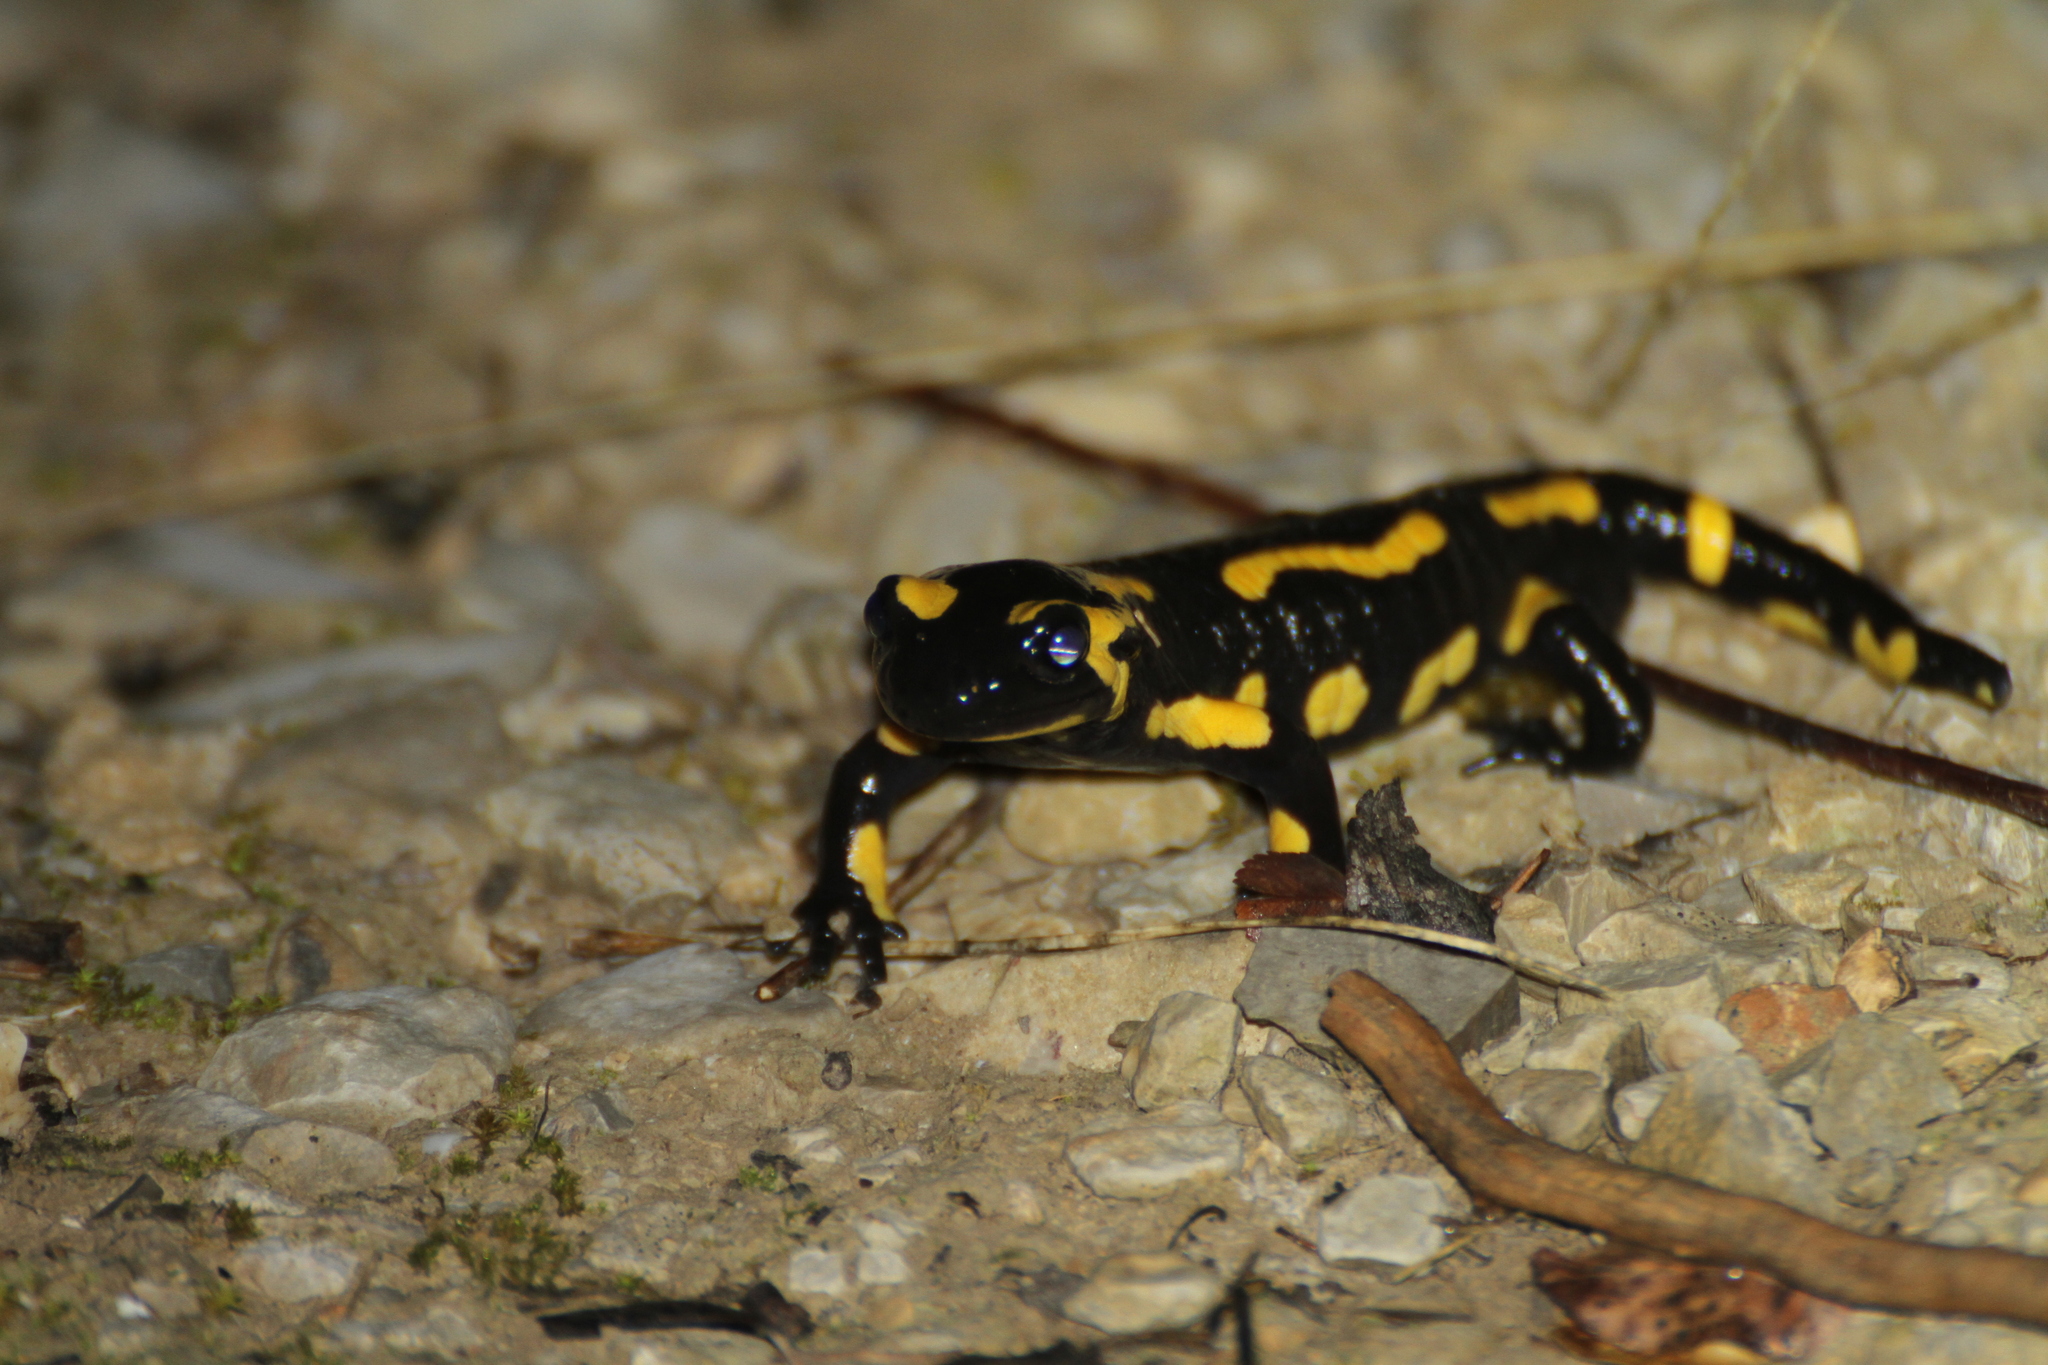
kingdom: Animalia
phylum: Chordata
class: Amphibia
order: Caudata
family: Salamandridae
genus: Salamandra
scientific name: Salamandra salamandra
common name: Fire salamander
